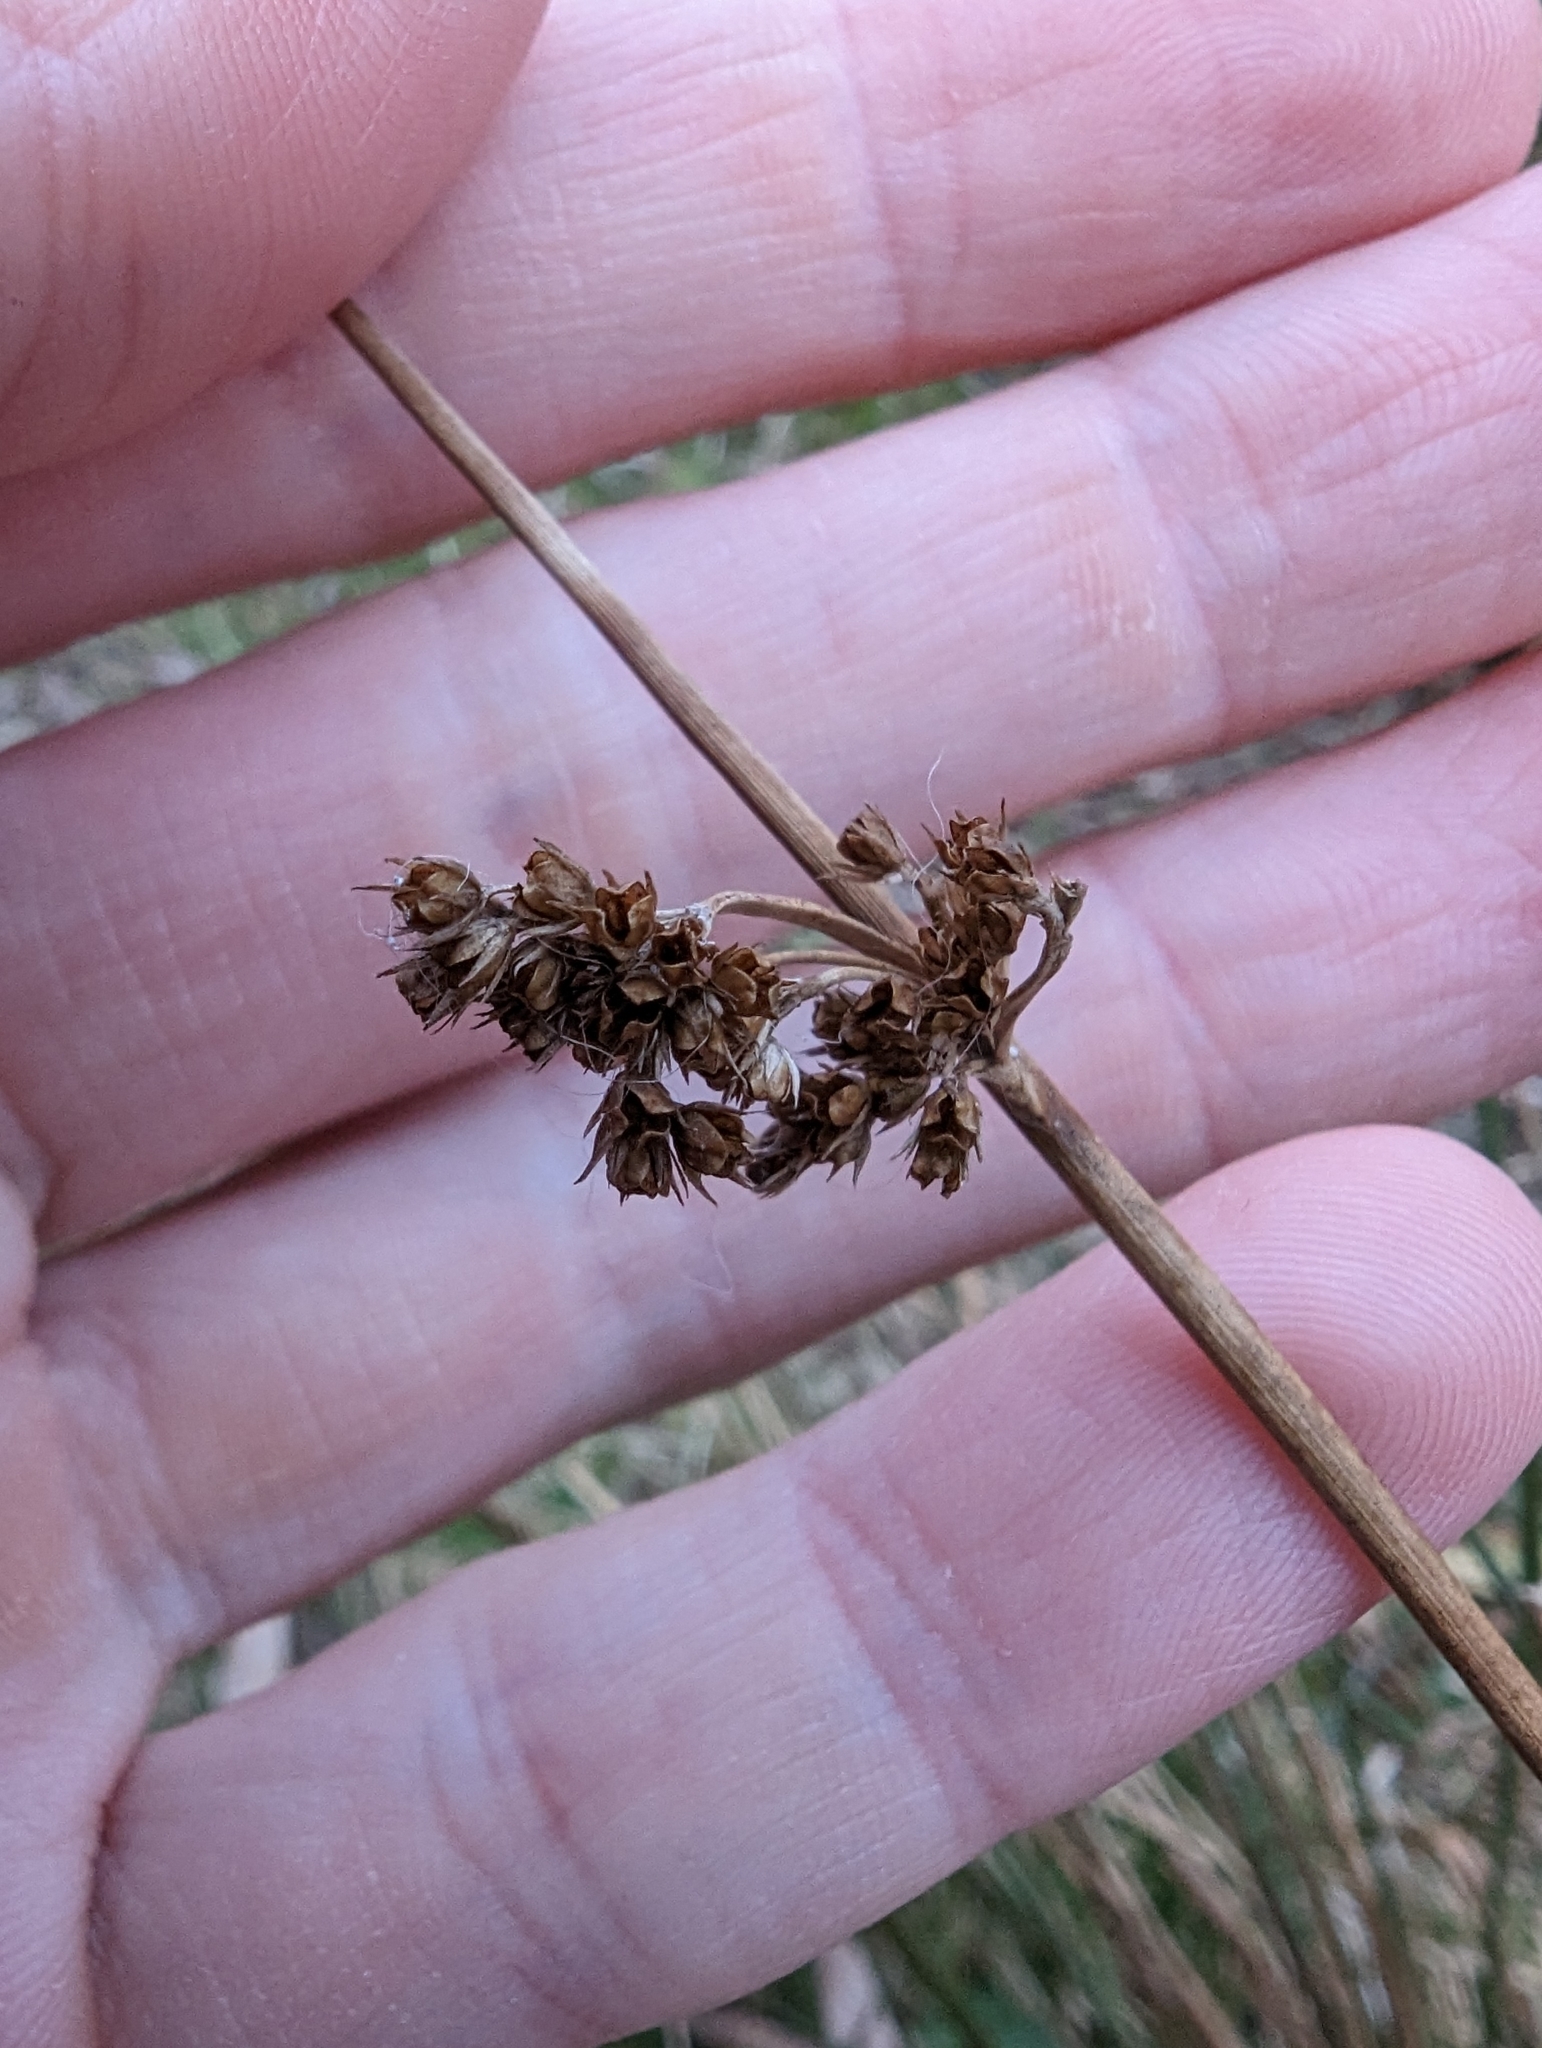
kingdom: Plantae
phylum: Tracheophyta
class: Liliopsida
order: Poales
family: Juncaceae
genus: Juncus
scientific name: Juncus effusus
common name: Soft rush
